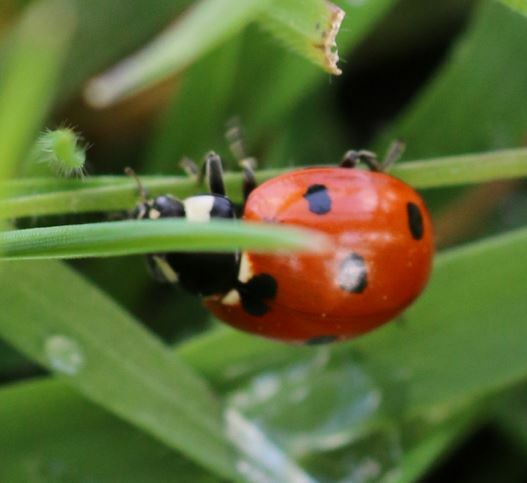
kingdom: Animalia
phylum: Arthropoda
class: Insecta
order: Coleoptera
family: Coccinellidae
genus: Coccinella
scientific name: Coccinella septempunctata
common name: Sevenspotted lady beetle
